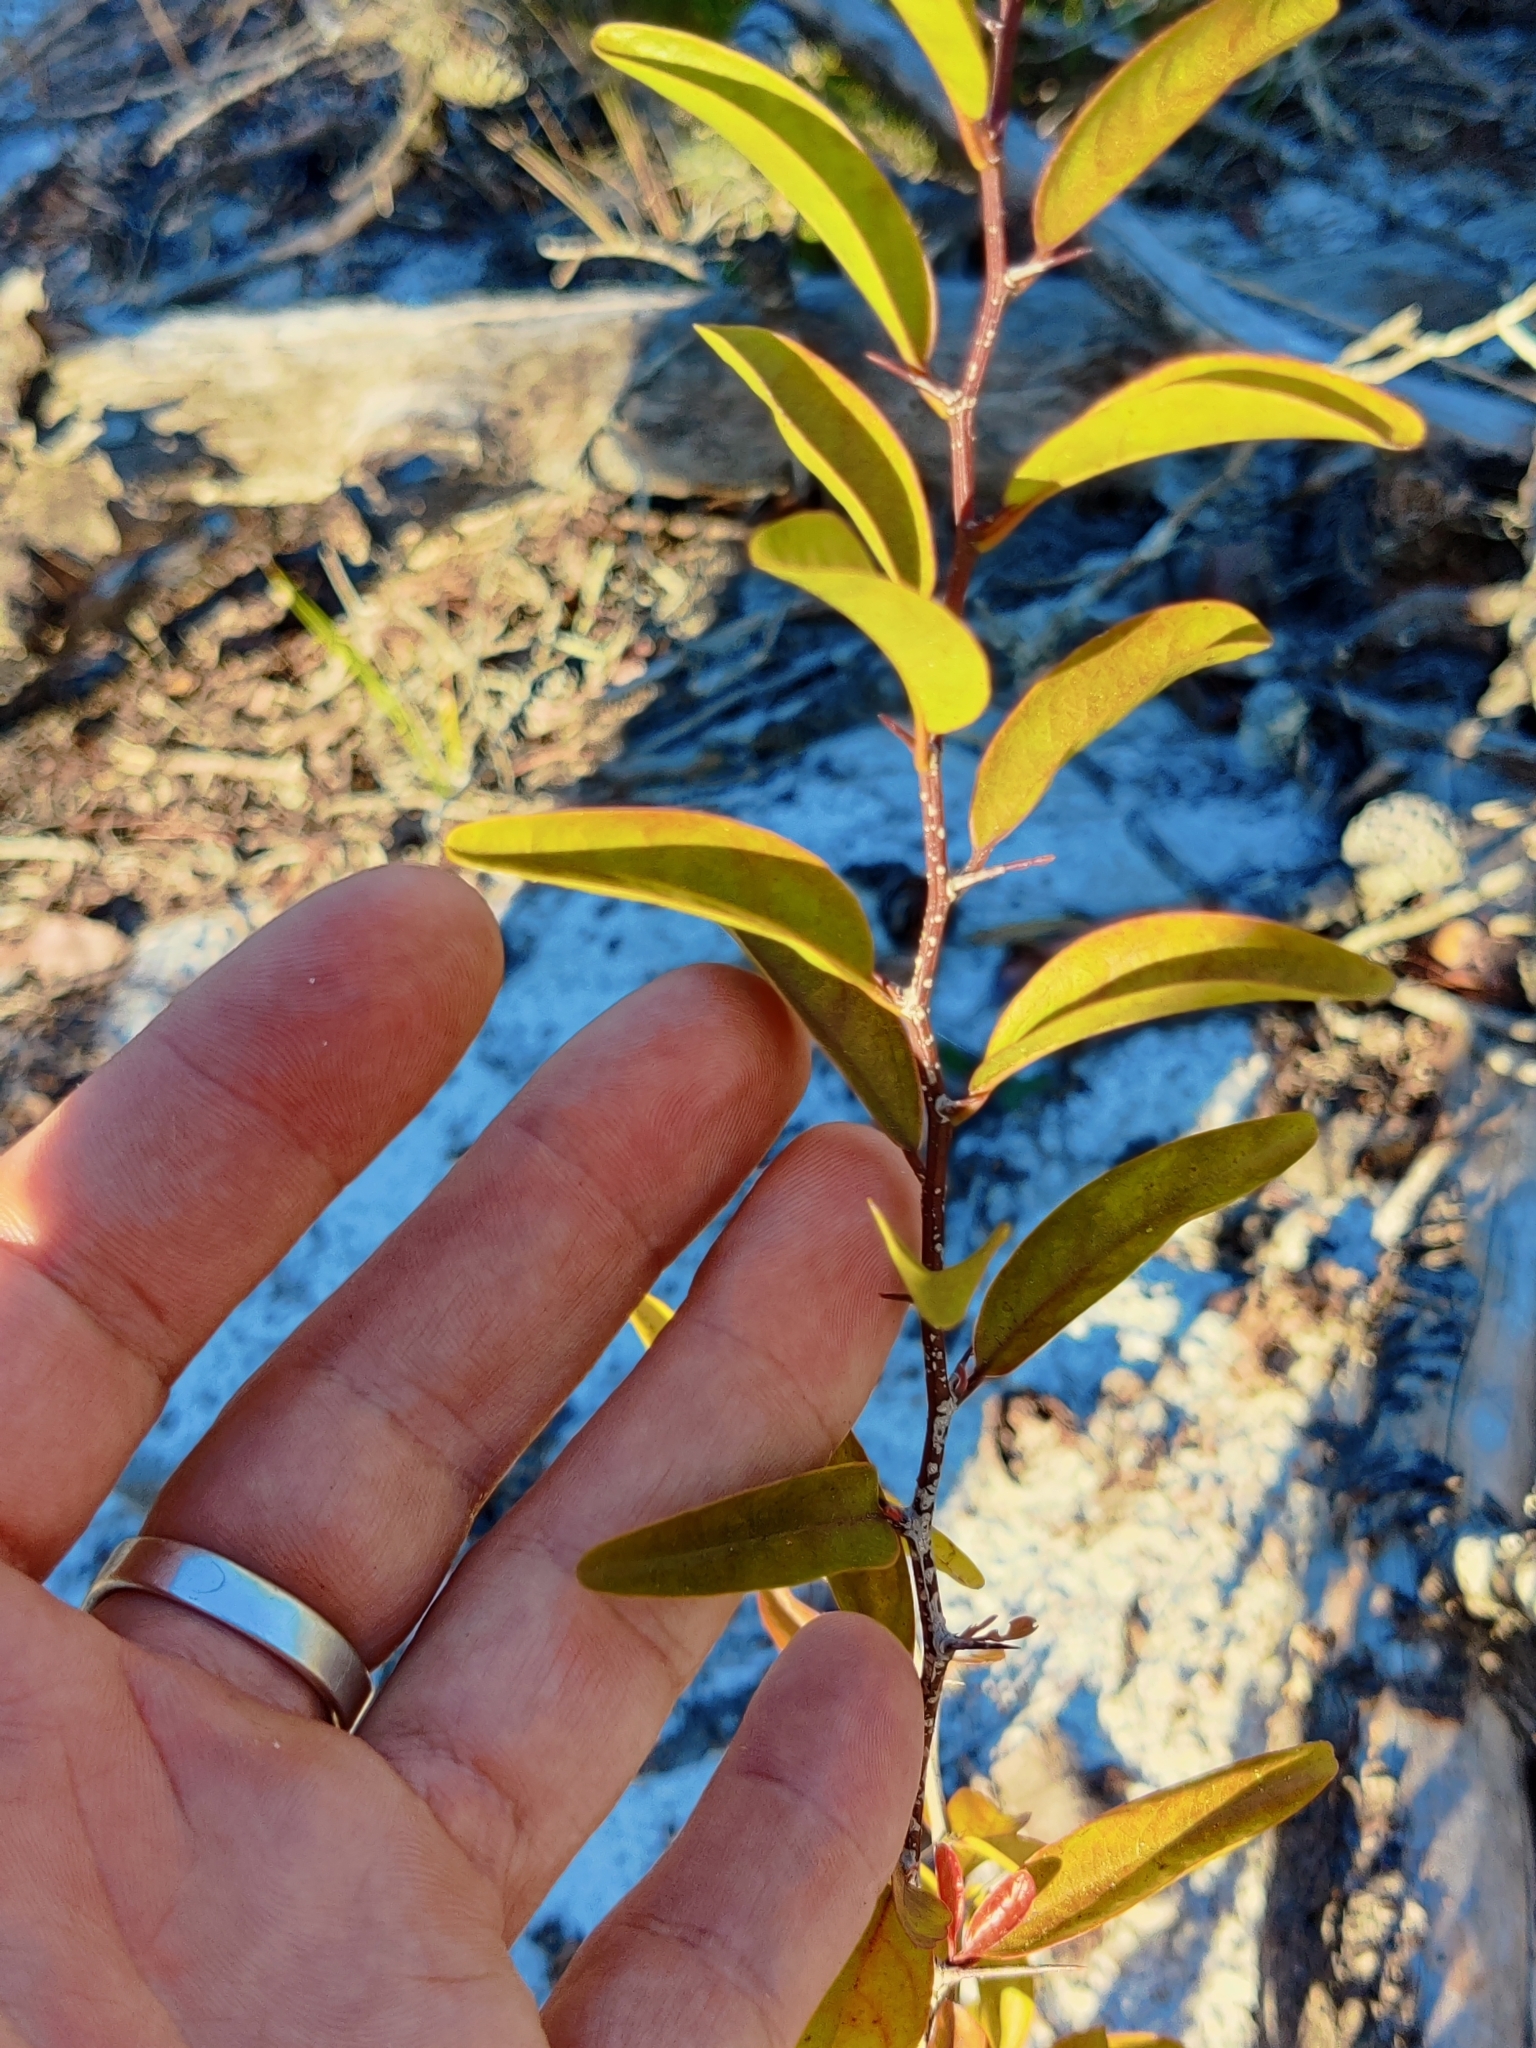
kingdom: Plantae
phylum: Tracheophyta
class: Magnoliopsida
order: Santalales
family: Ximeniaceae
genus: Ximenia
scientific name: Ximenia americana
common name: Tallowwood
